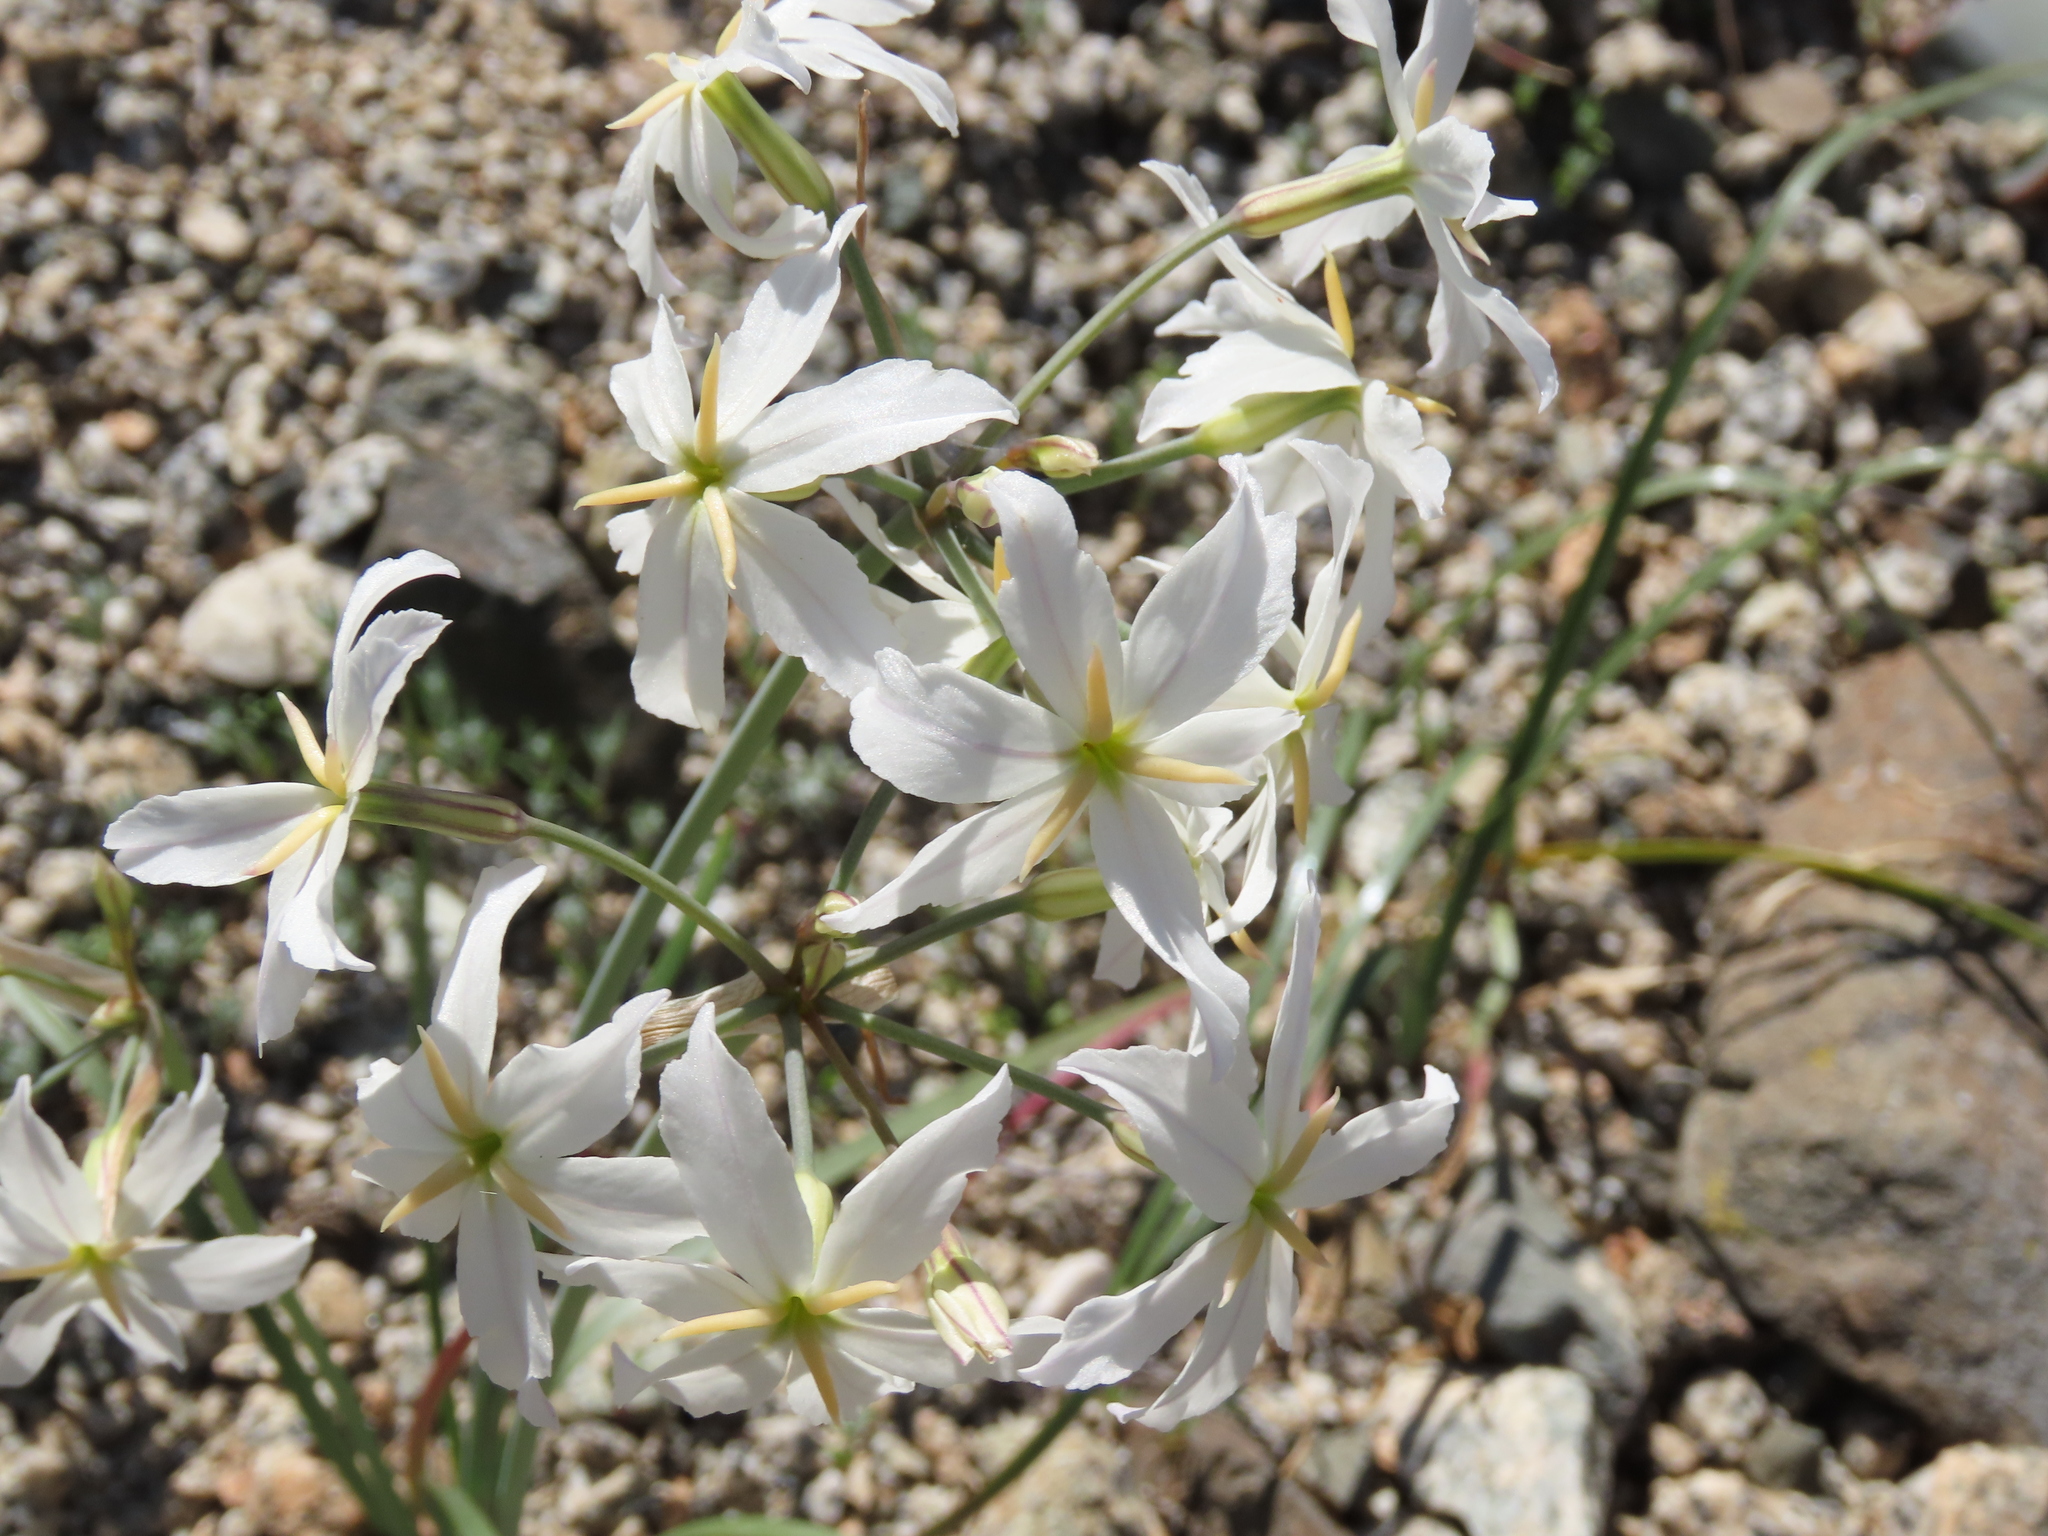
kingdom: Plantae
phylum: Tracheophyta
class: Liliopsida
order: Asparagales
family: Amaryllidaceae
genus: Leucocoryne
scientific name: Leucocoryne appendiculata
